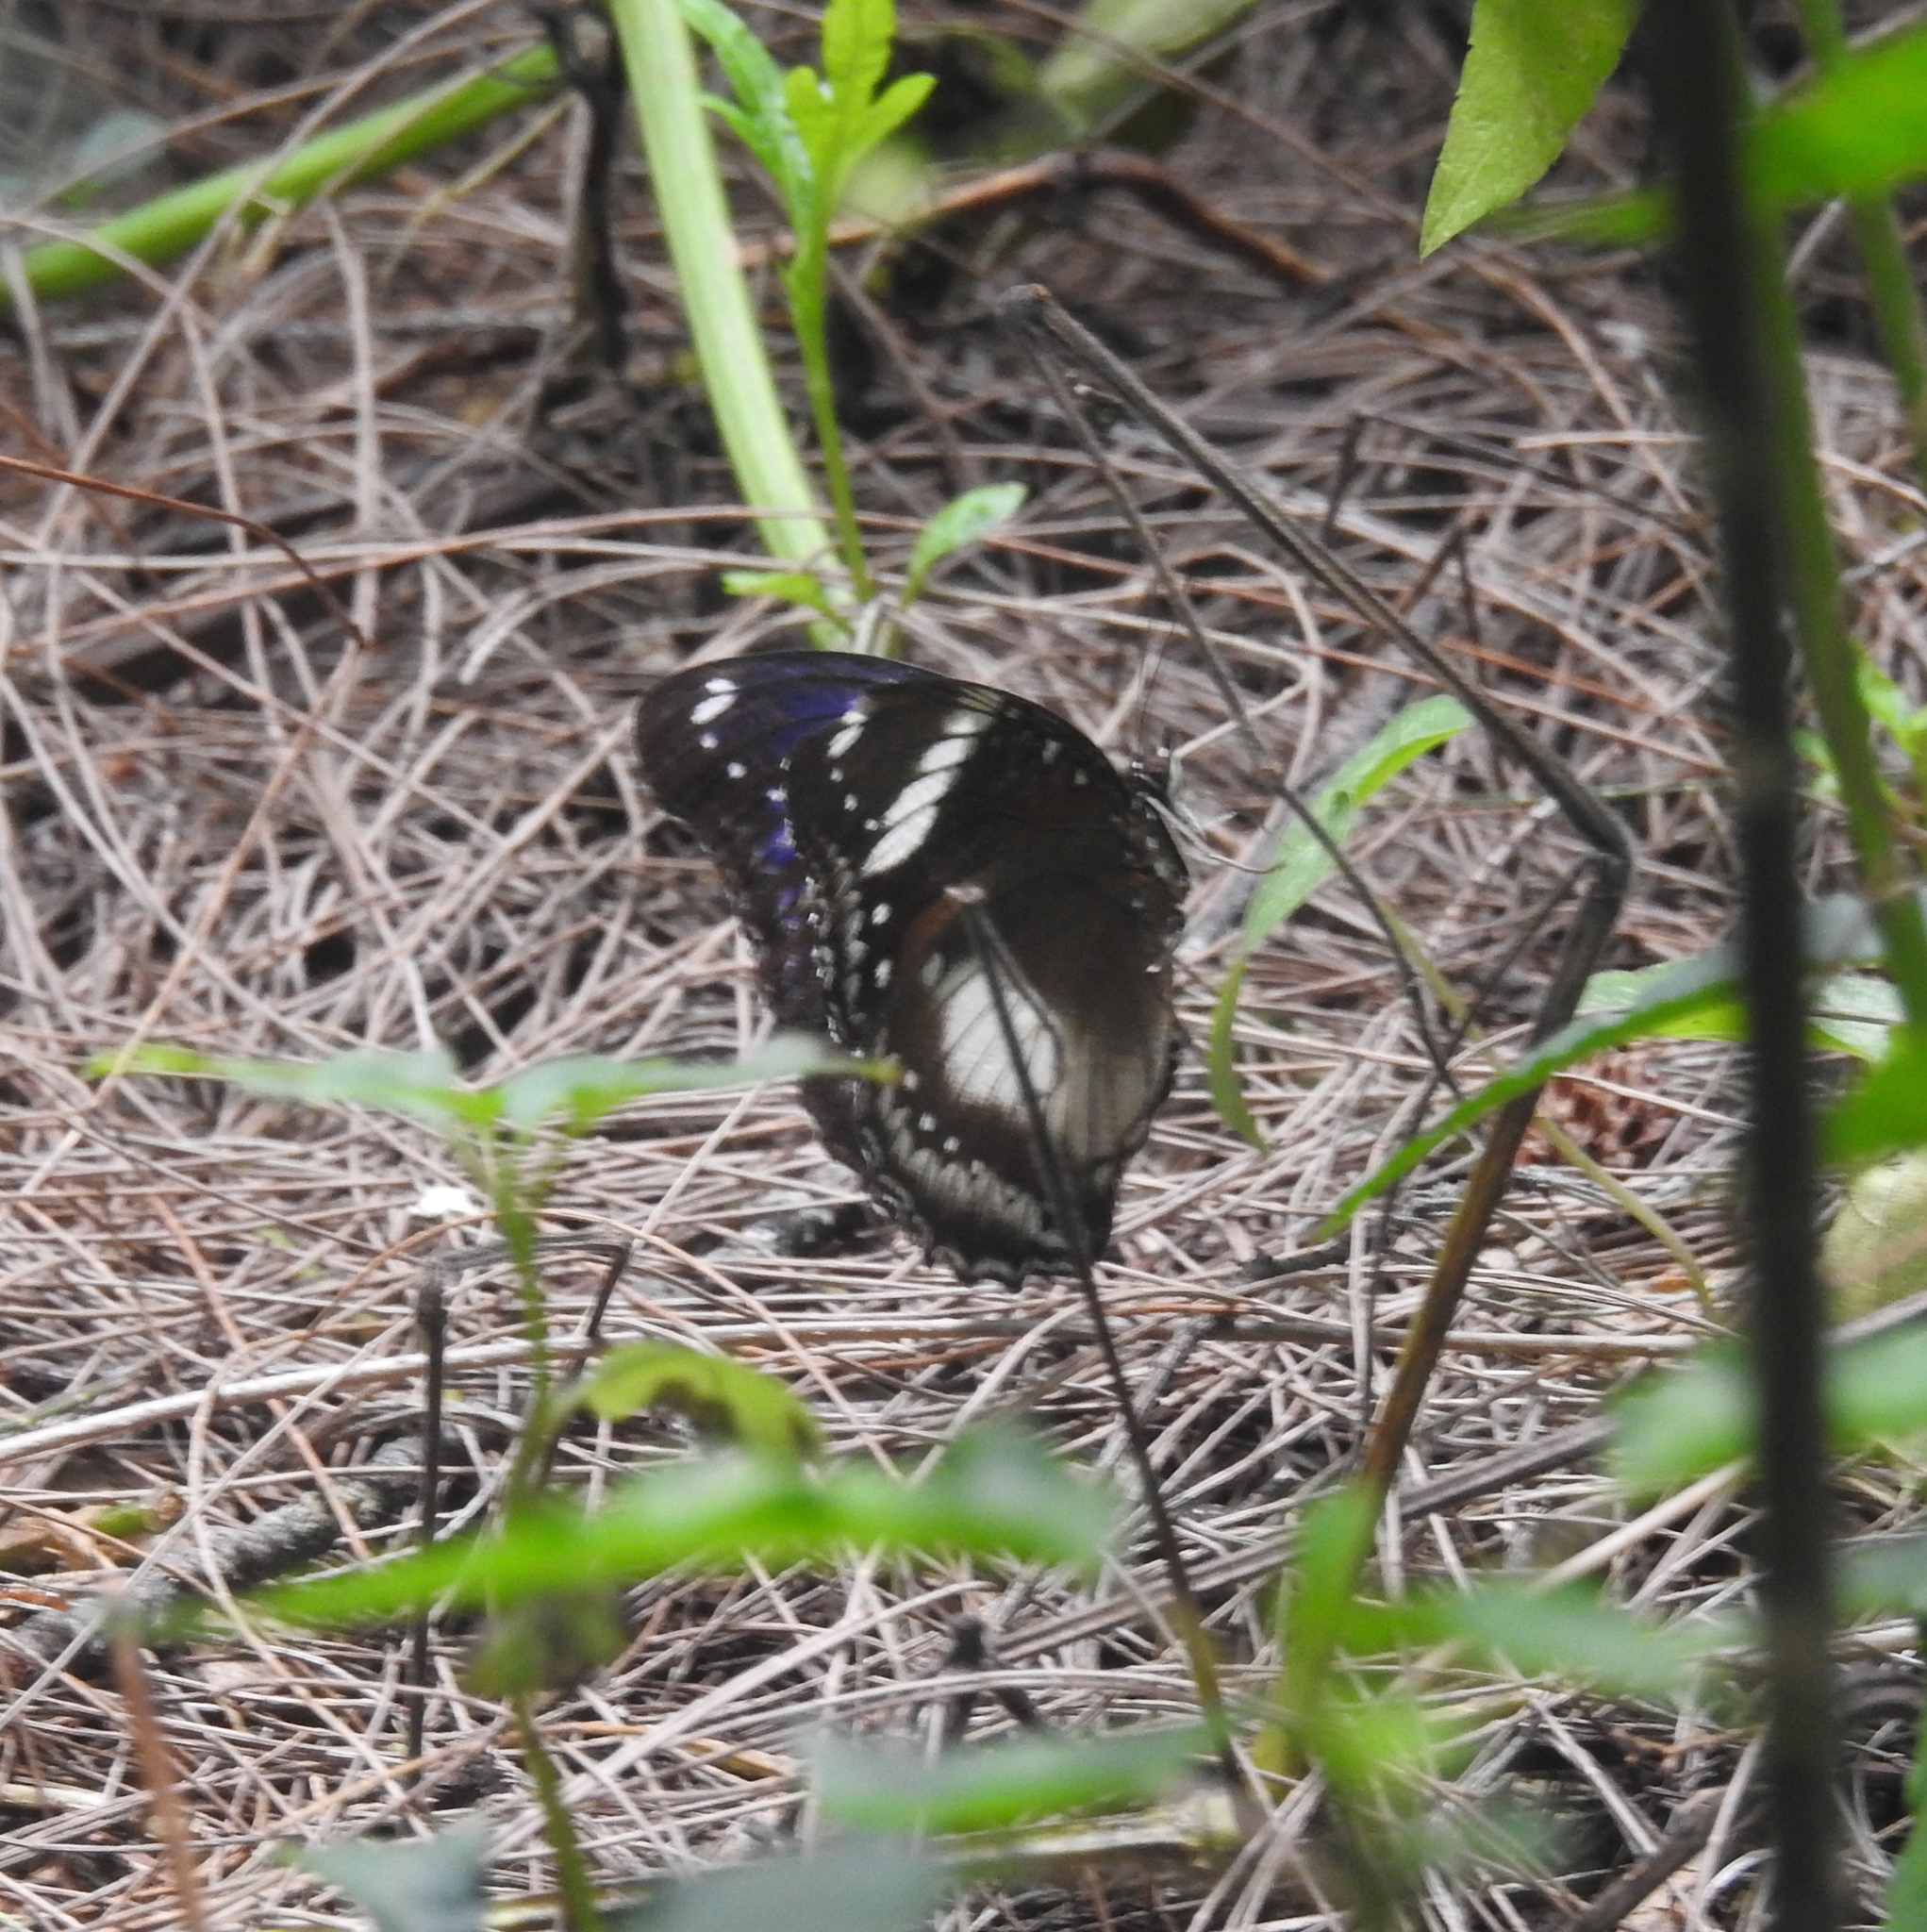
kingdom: Animalia
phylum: Arthropoda
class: Insecta
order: Lepidoptera
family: Nymphalidae
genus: Hypolimnas
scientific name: Hypolimnas bolina
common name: Great eggfly
